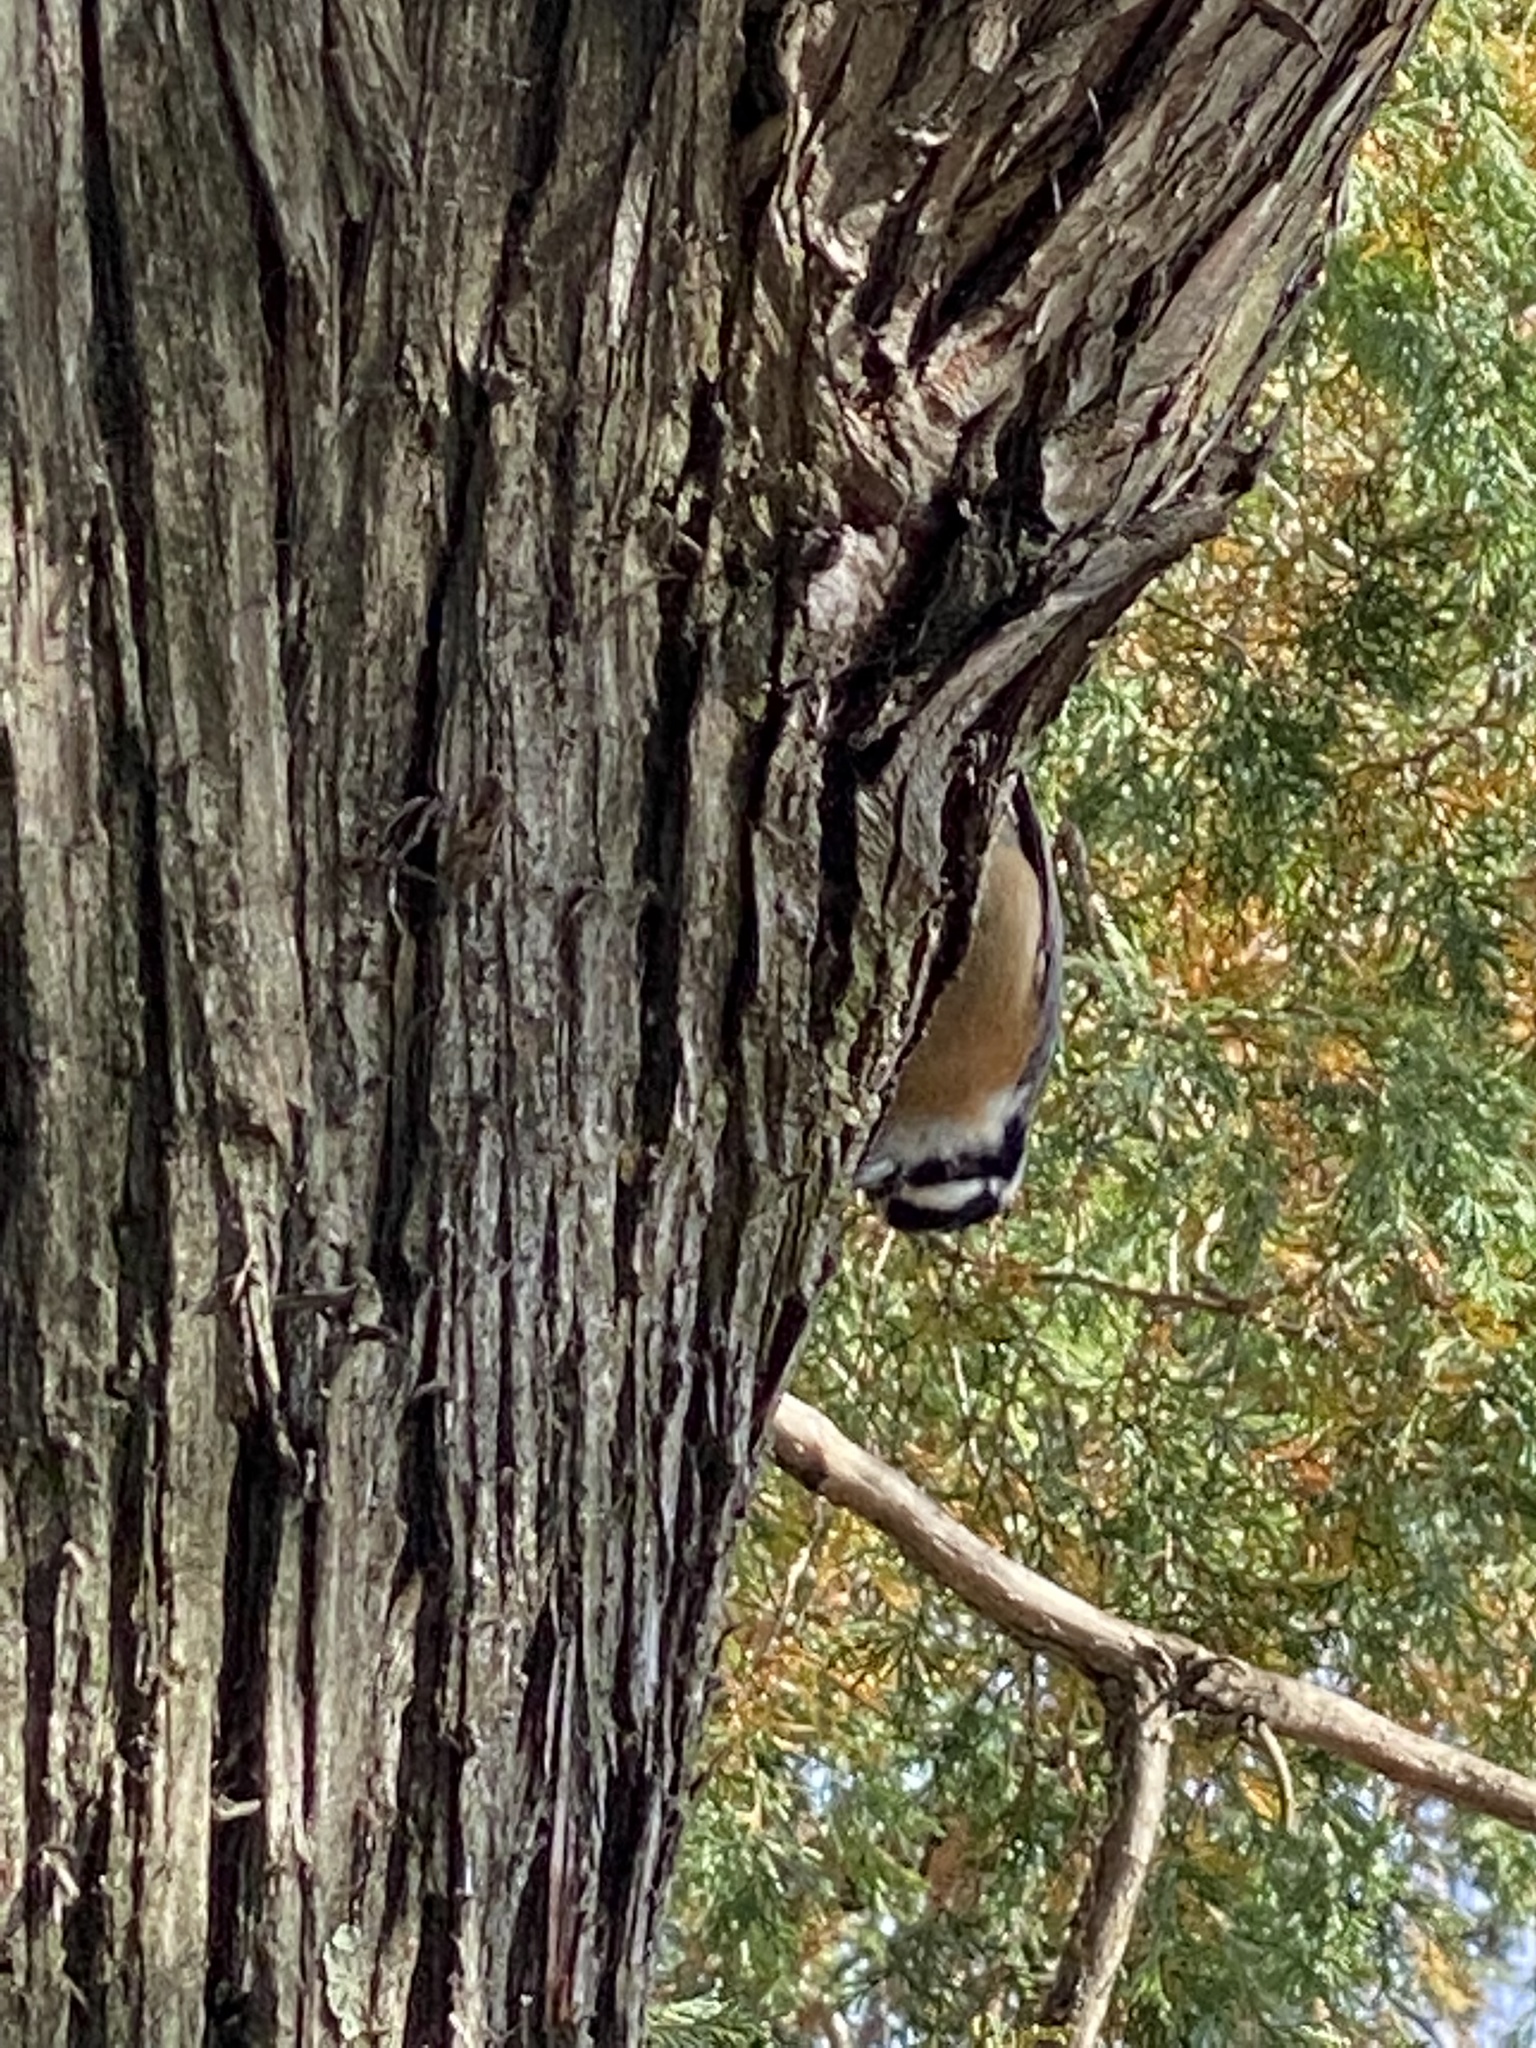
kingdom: Animalia
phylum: Chordata
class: Aves
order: Passeriformes
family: Sittidae
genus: Sitta
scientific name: Sitta canadensis
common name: Red-breasted nuthatch
